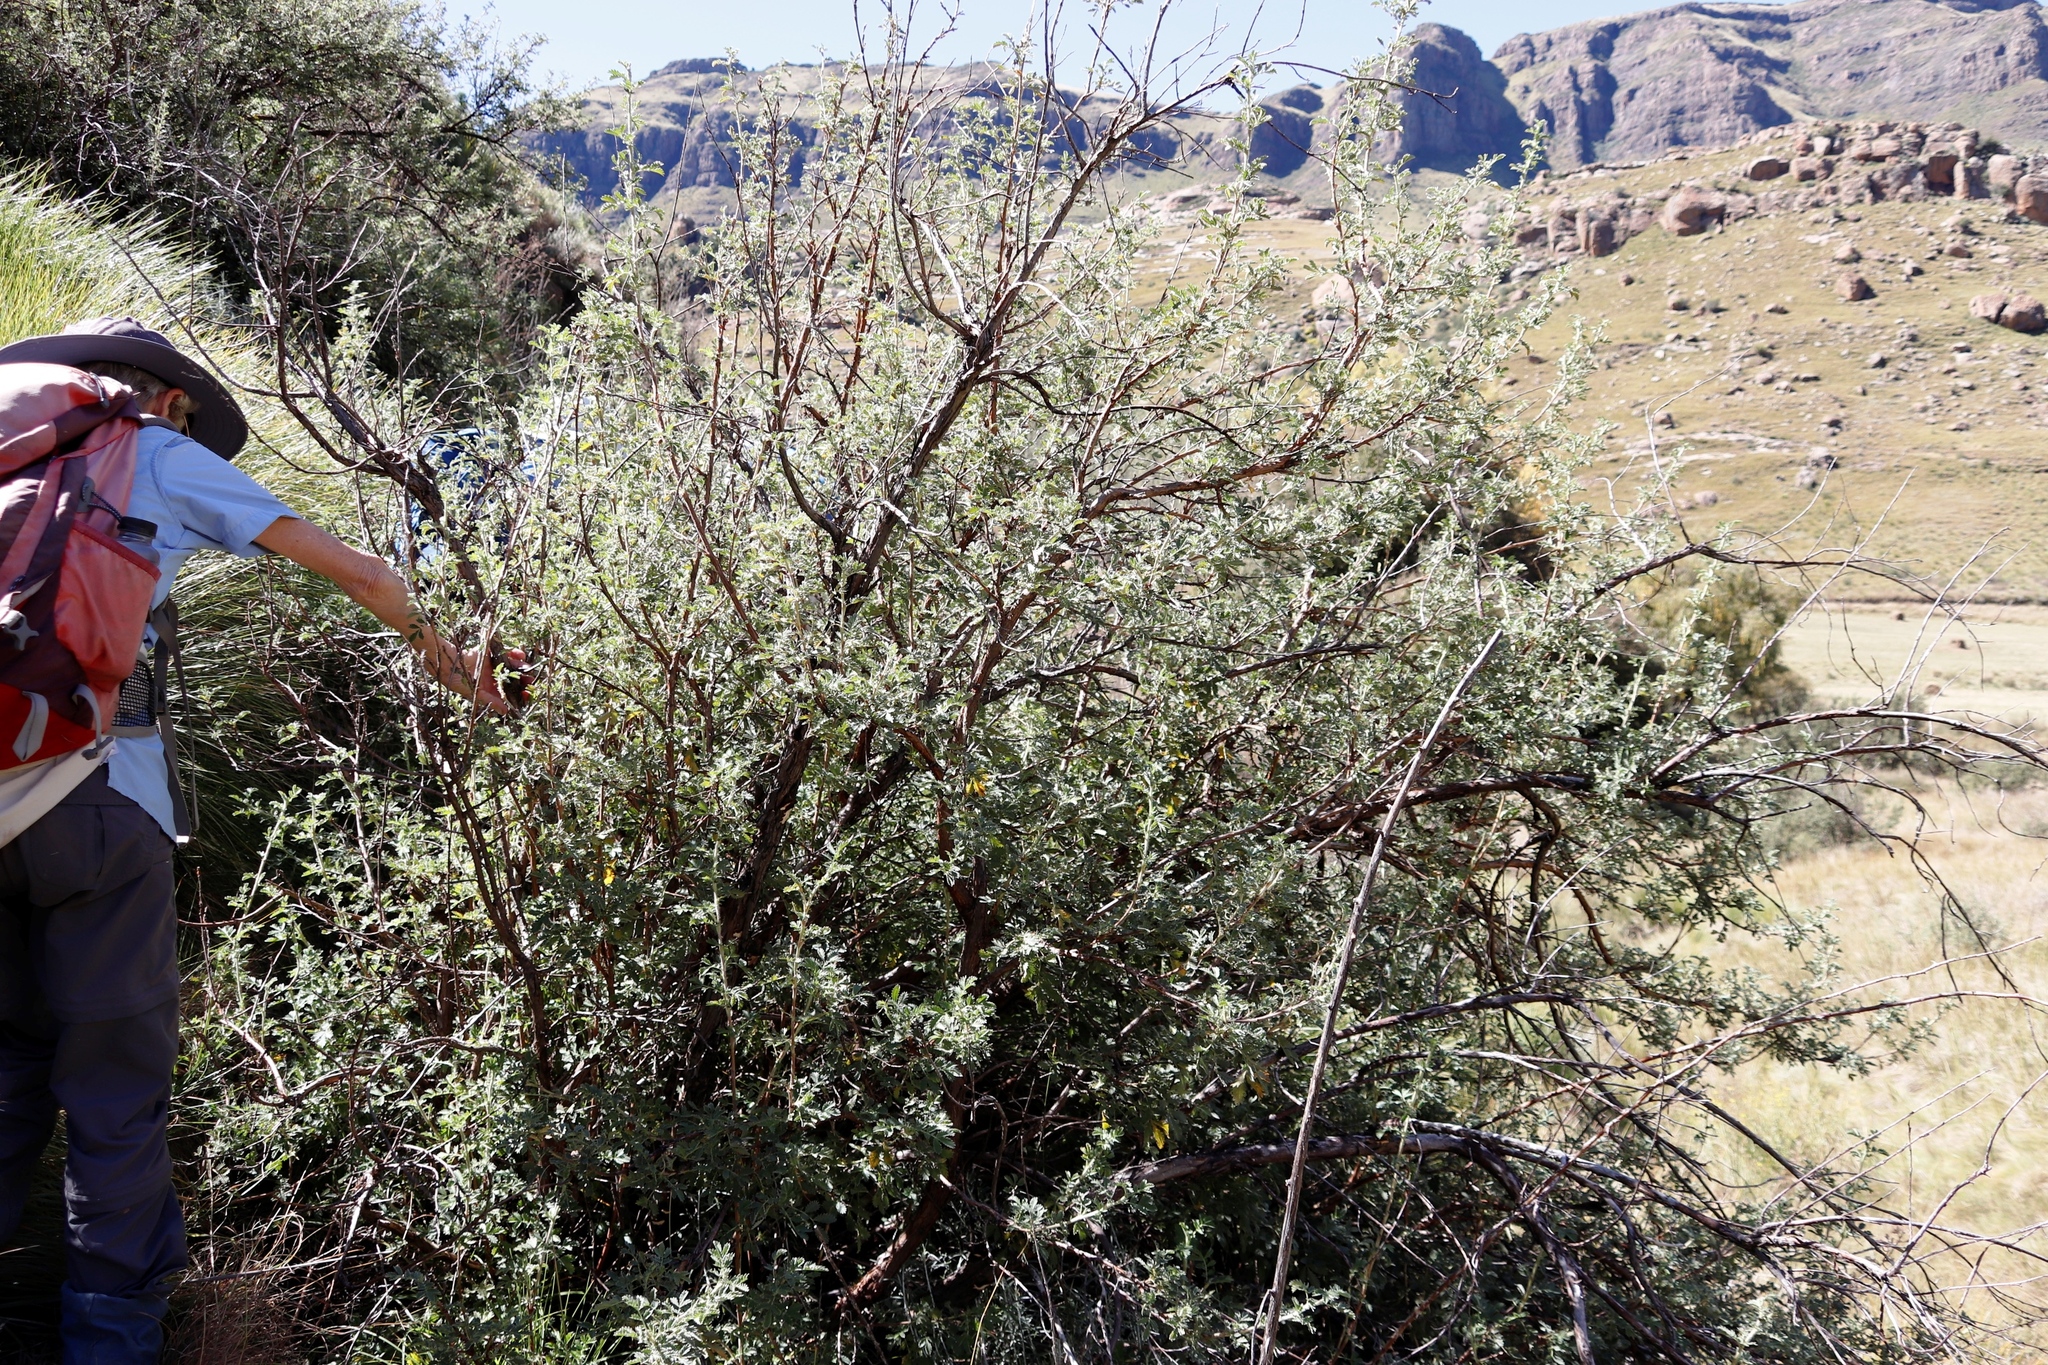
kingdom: Plantae
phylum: Tracheophyta
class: Magnoliopsida
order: Rosales
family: Rosaceae
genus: Leucosidea
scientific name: Leucosidea sericea
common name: Oldwood
